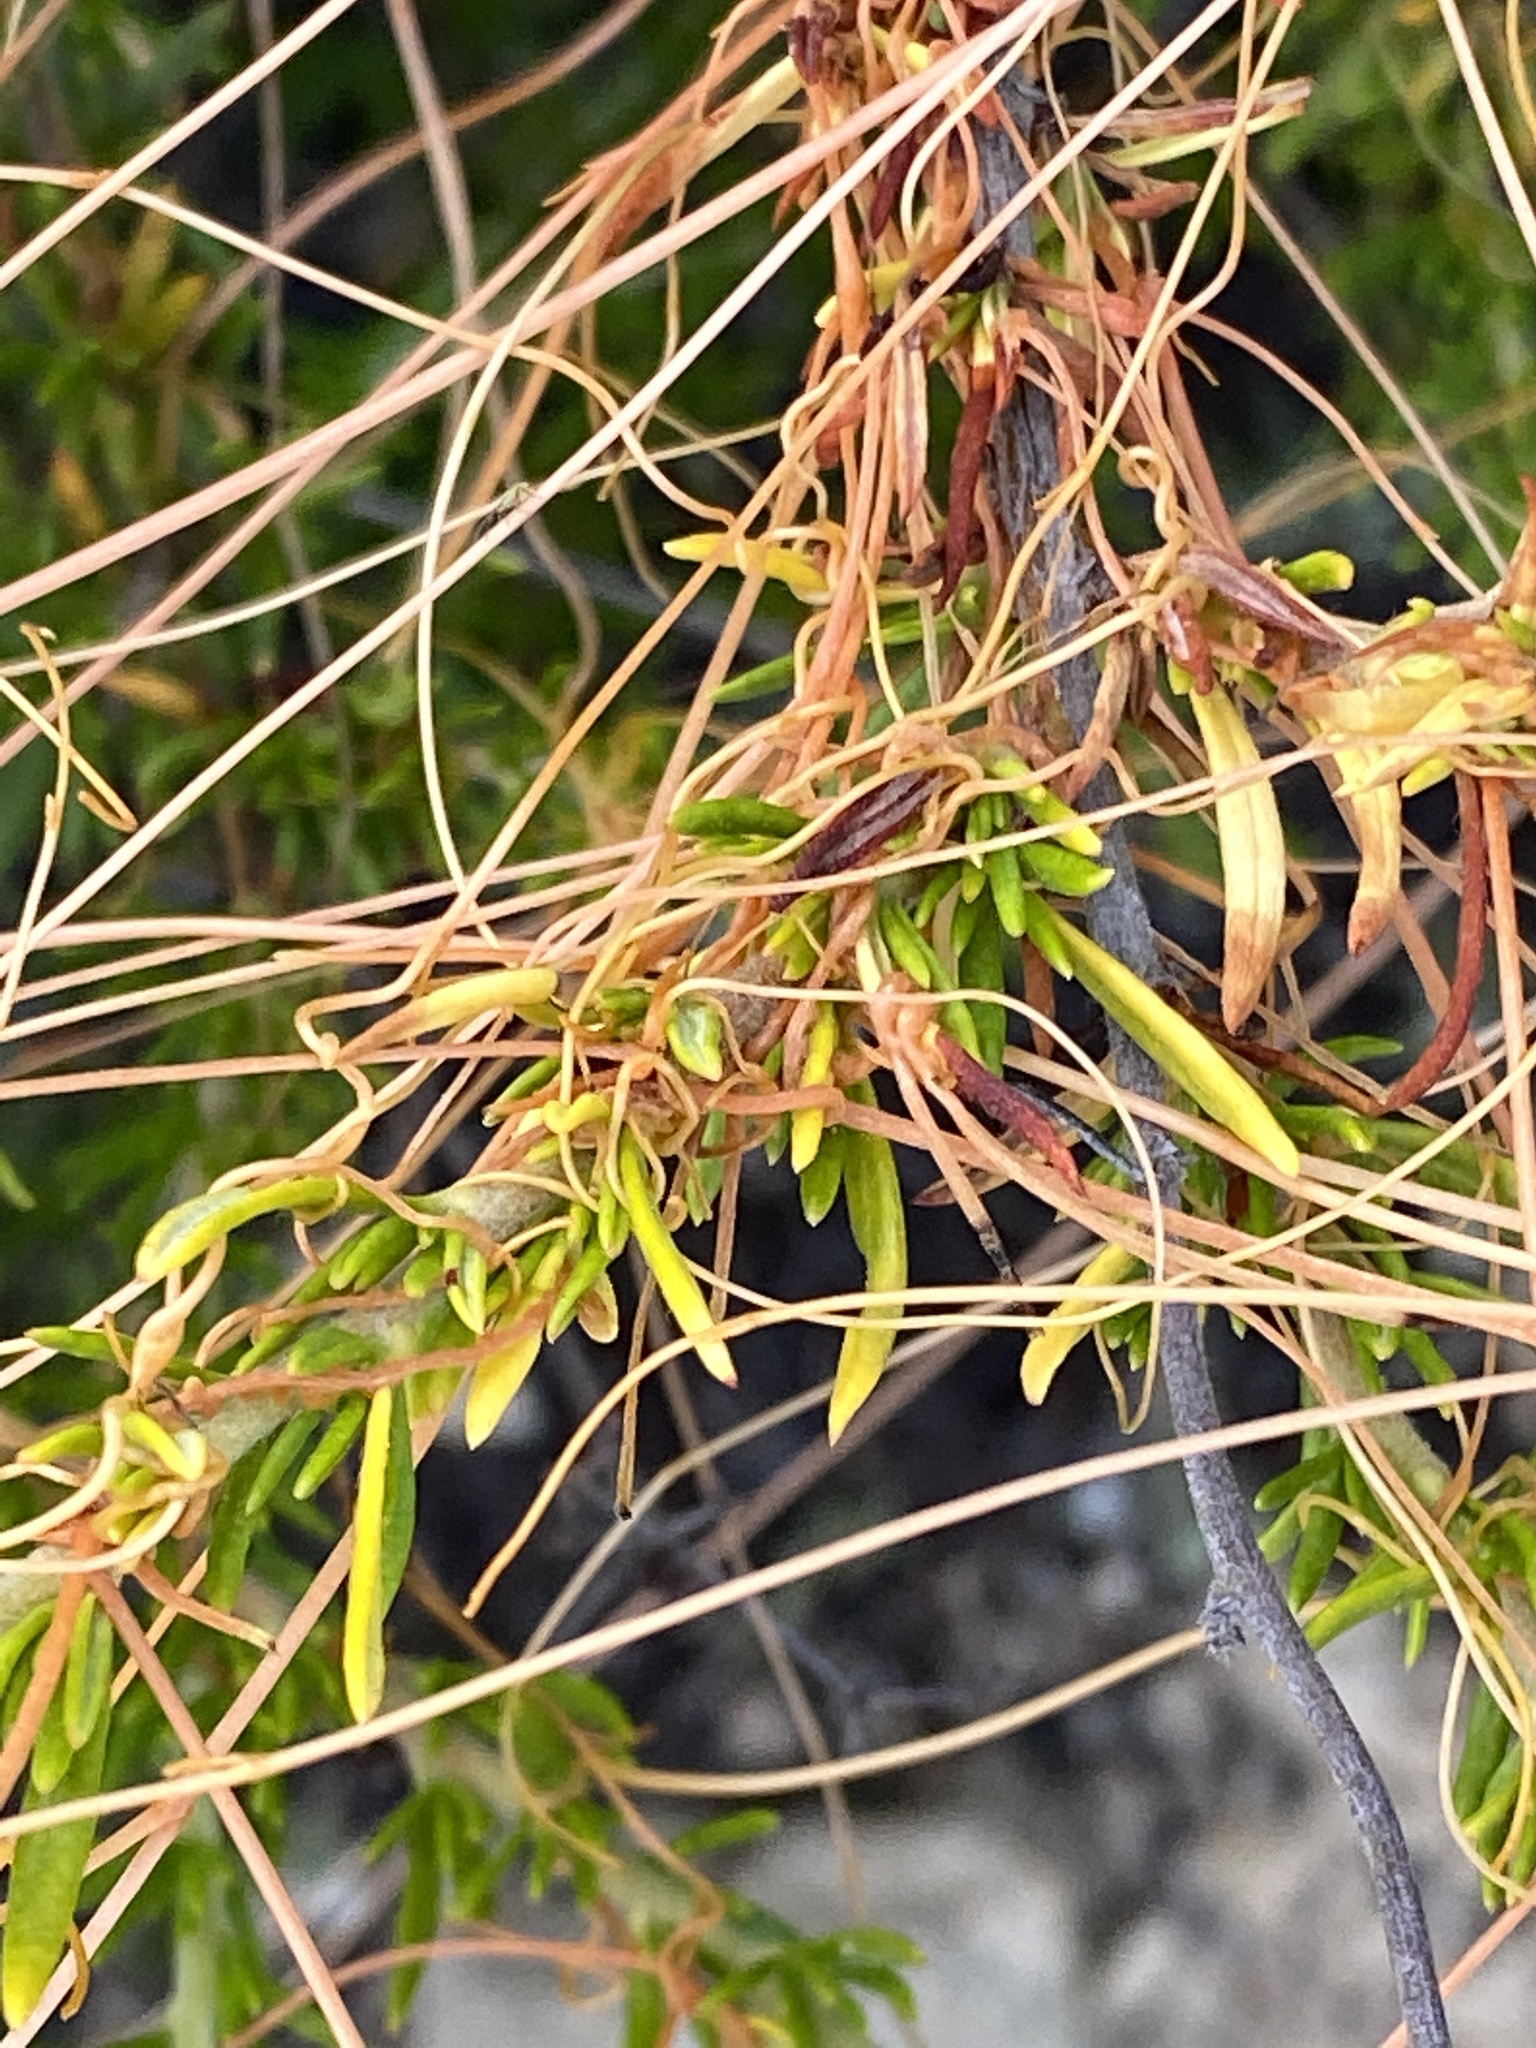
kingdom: Plantae
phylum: Tracheophyta
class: Magnoliopsida
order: Solanales
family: Convolvulaceae
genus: Cuscuta
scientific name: Cuscuta californica
